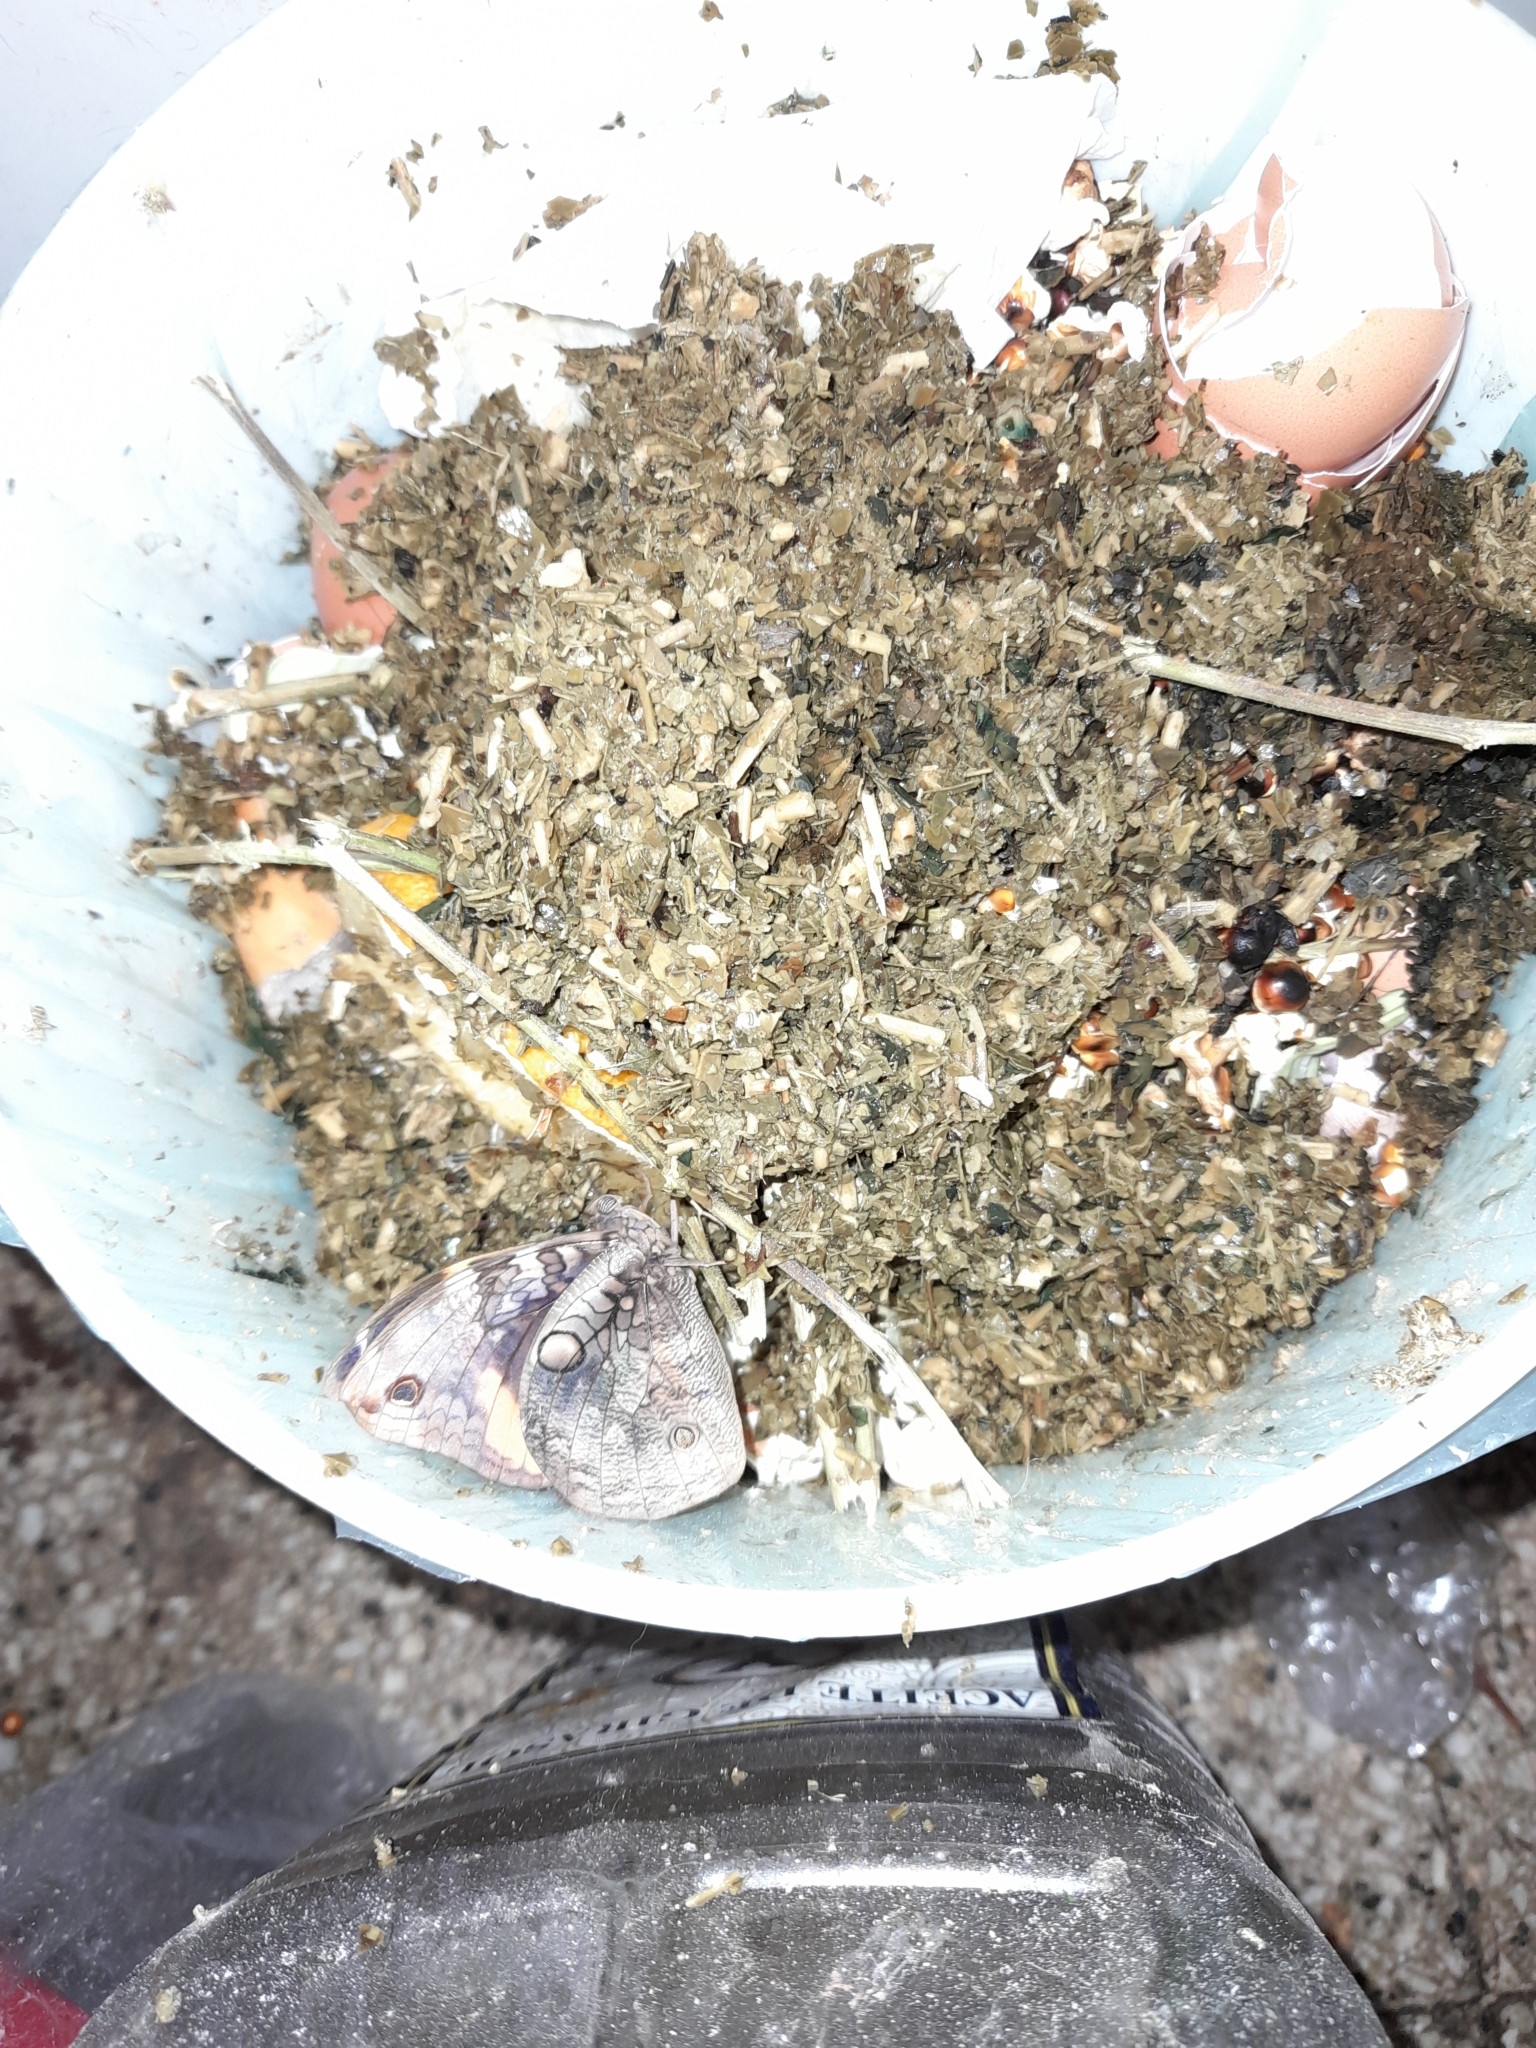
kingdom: Animalia
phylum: Arthropoda
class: Insecta
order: Lepidoptera
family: Nymphalidae
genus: Opsiphanes
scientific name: Opsiphanes invirae
